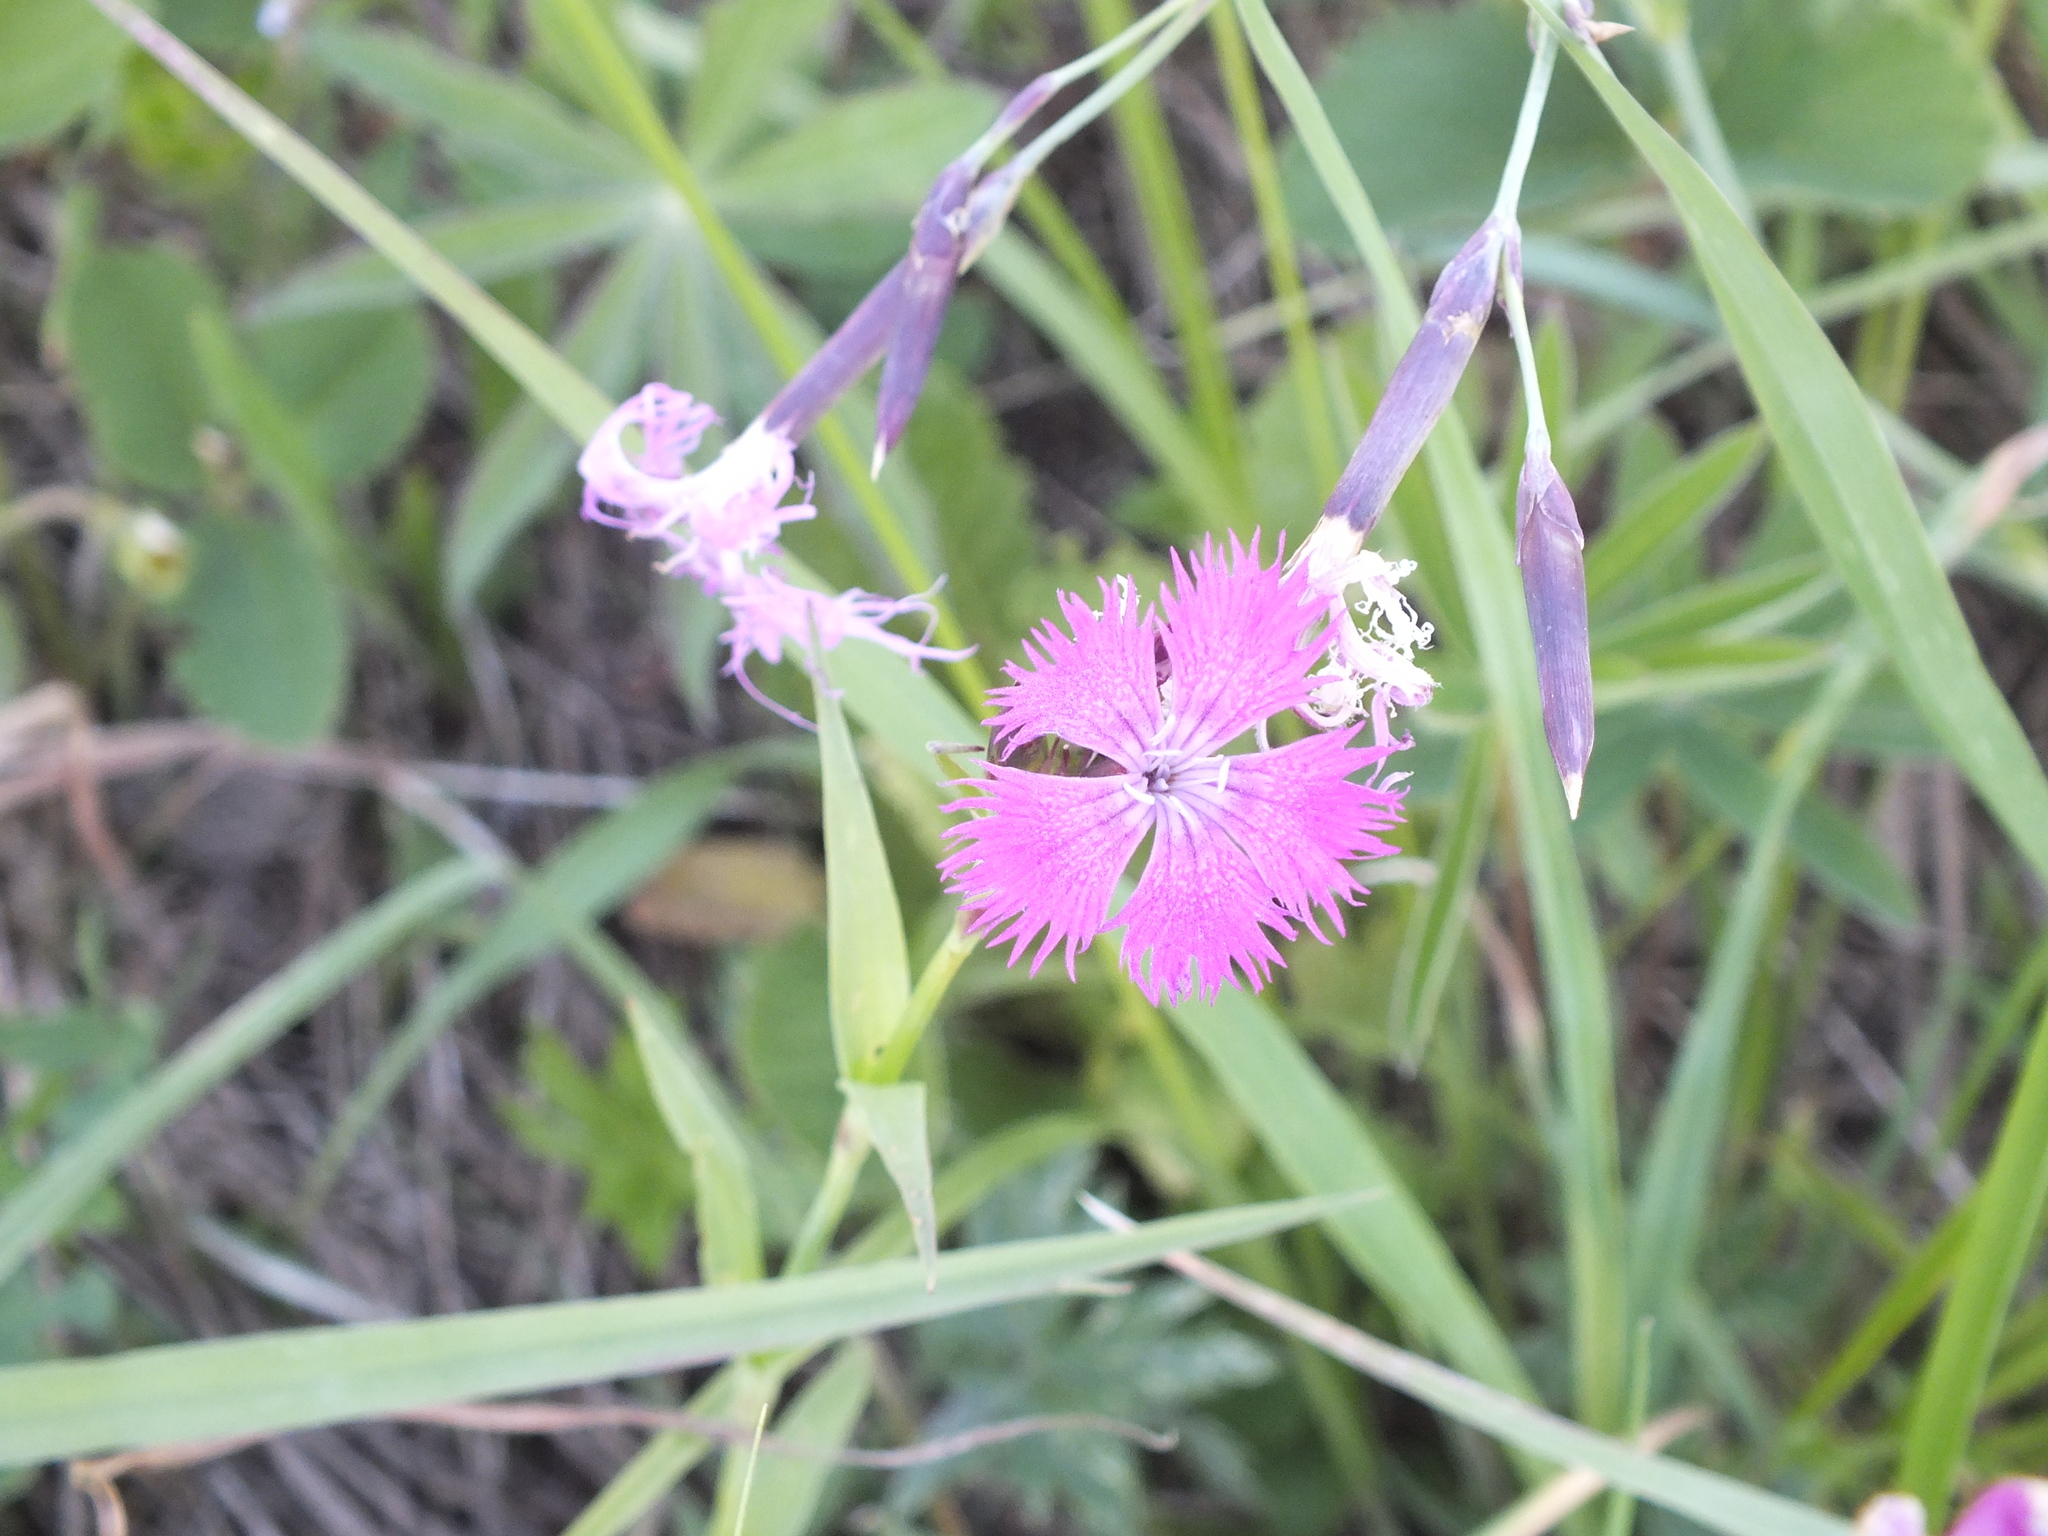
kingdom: Plantae
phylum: Tracheophyta
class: Magnoliopsida
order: Caryophyllales
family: Caryophyllaceae
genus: Dianthus
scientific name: Dianthus courtoisii
